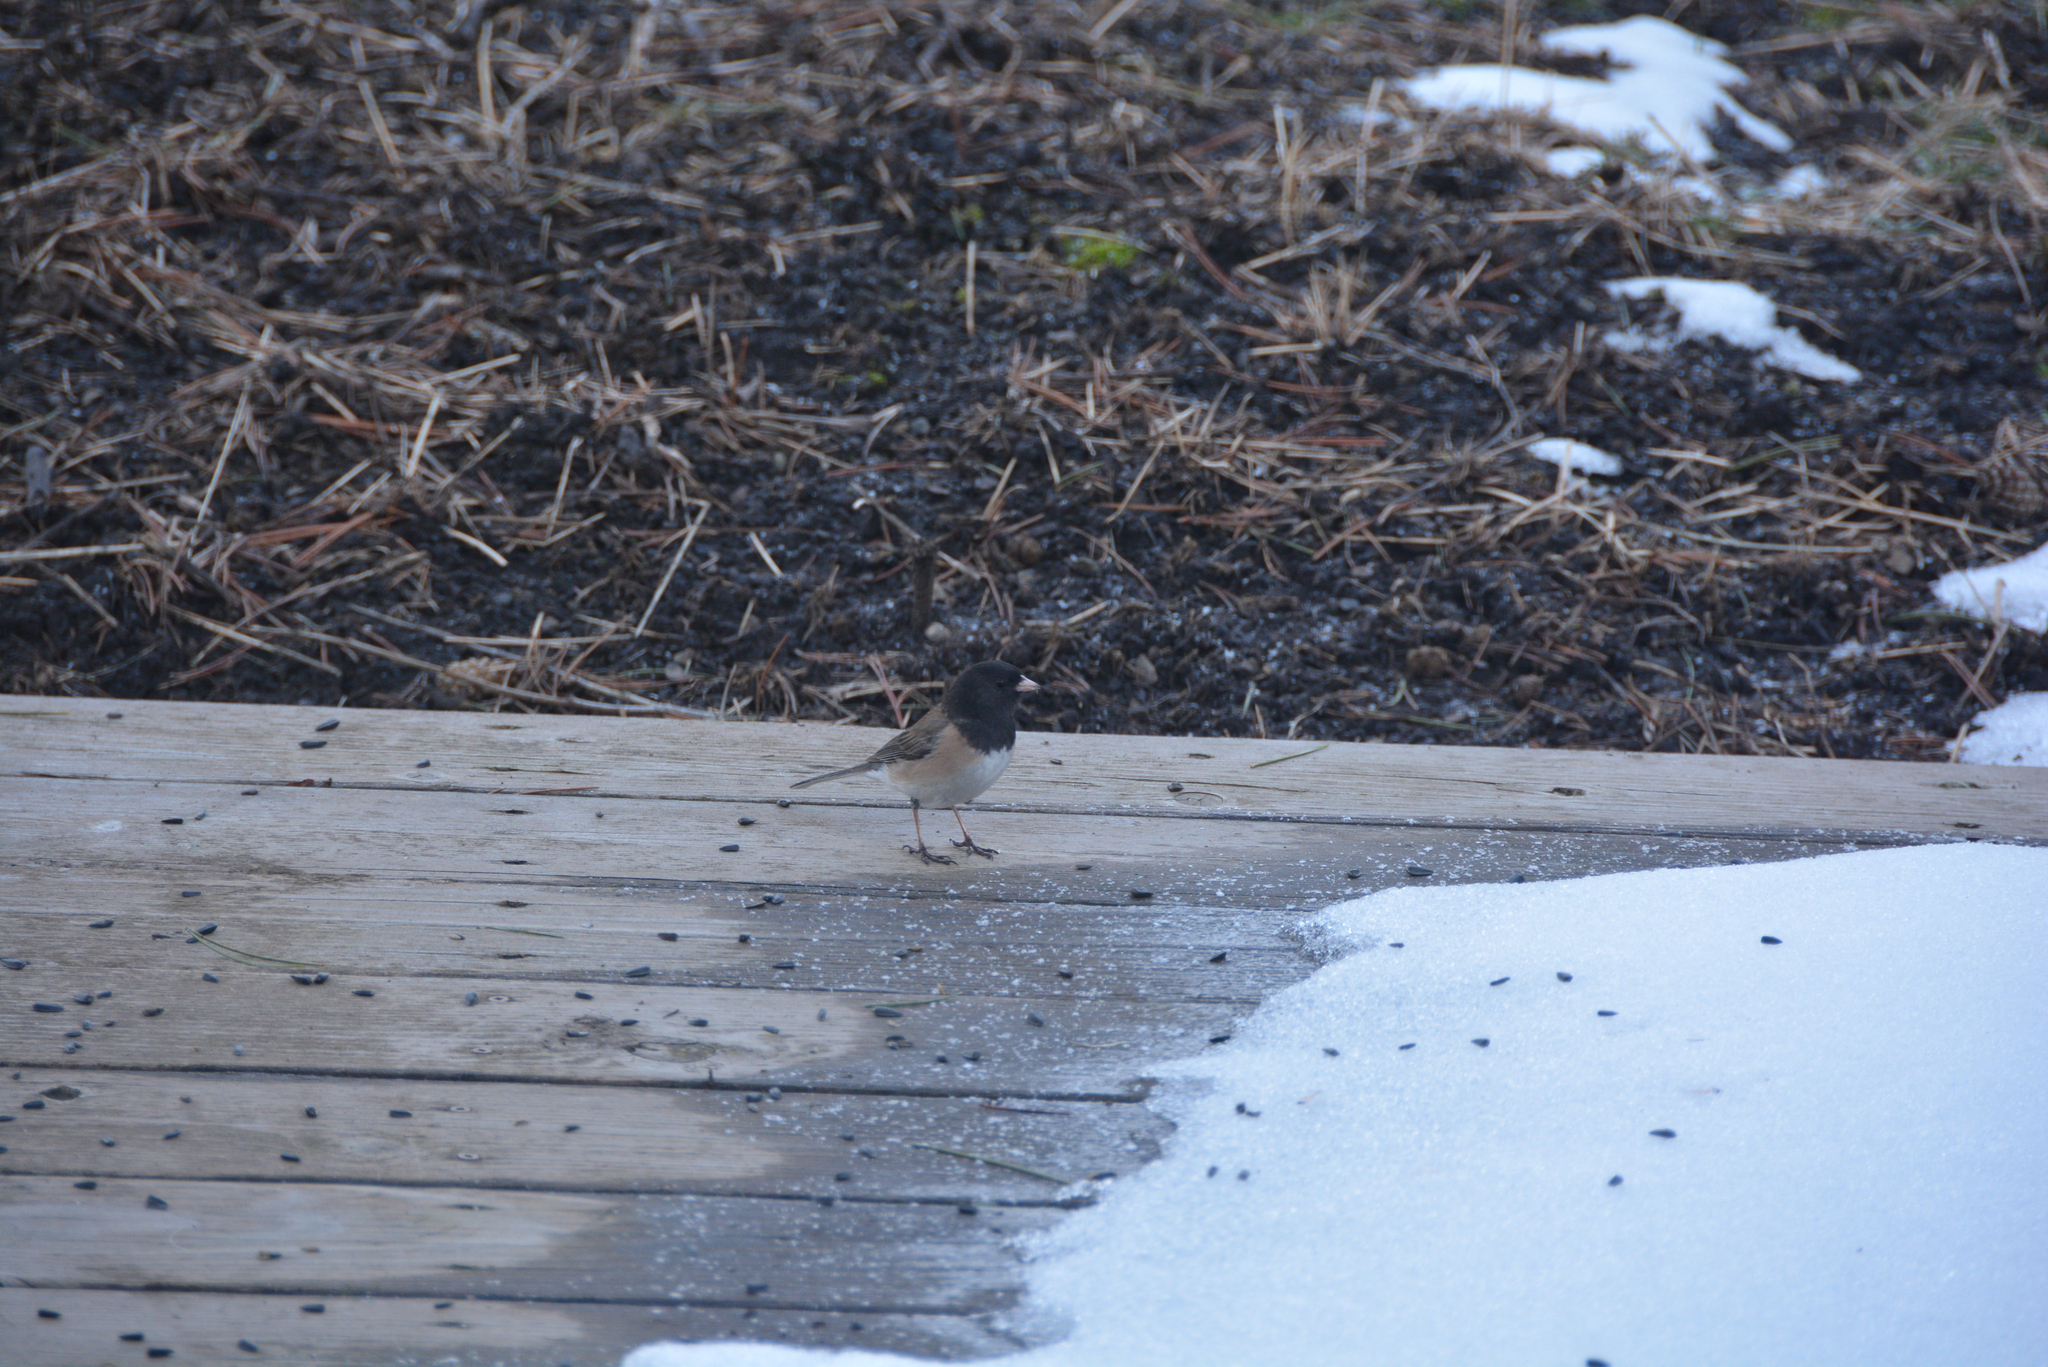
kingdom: Animalia
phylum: Chordata
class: Aves
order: Passeriformes
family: Passerellidae
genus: Junco
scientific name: Junco hyemalis
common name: Dark-eyed junco
